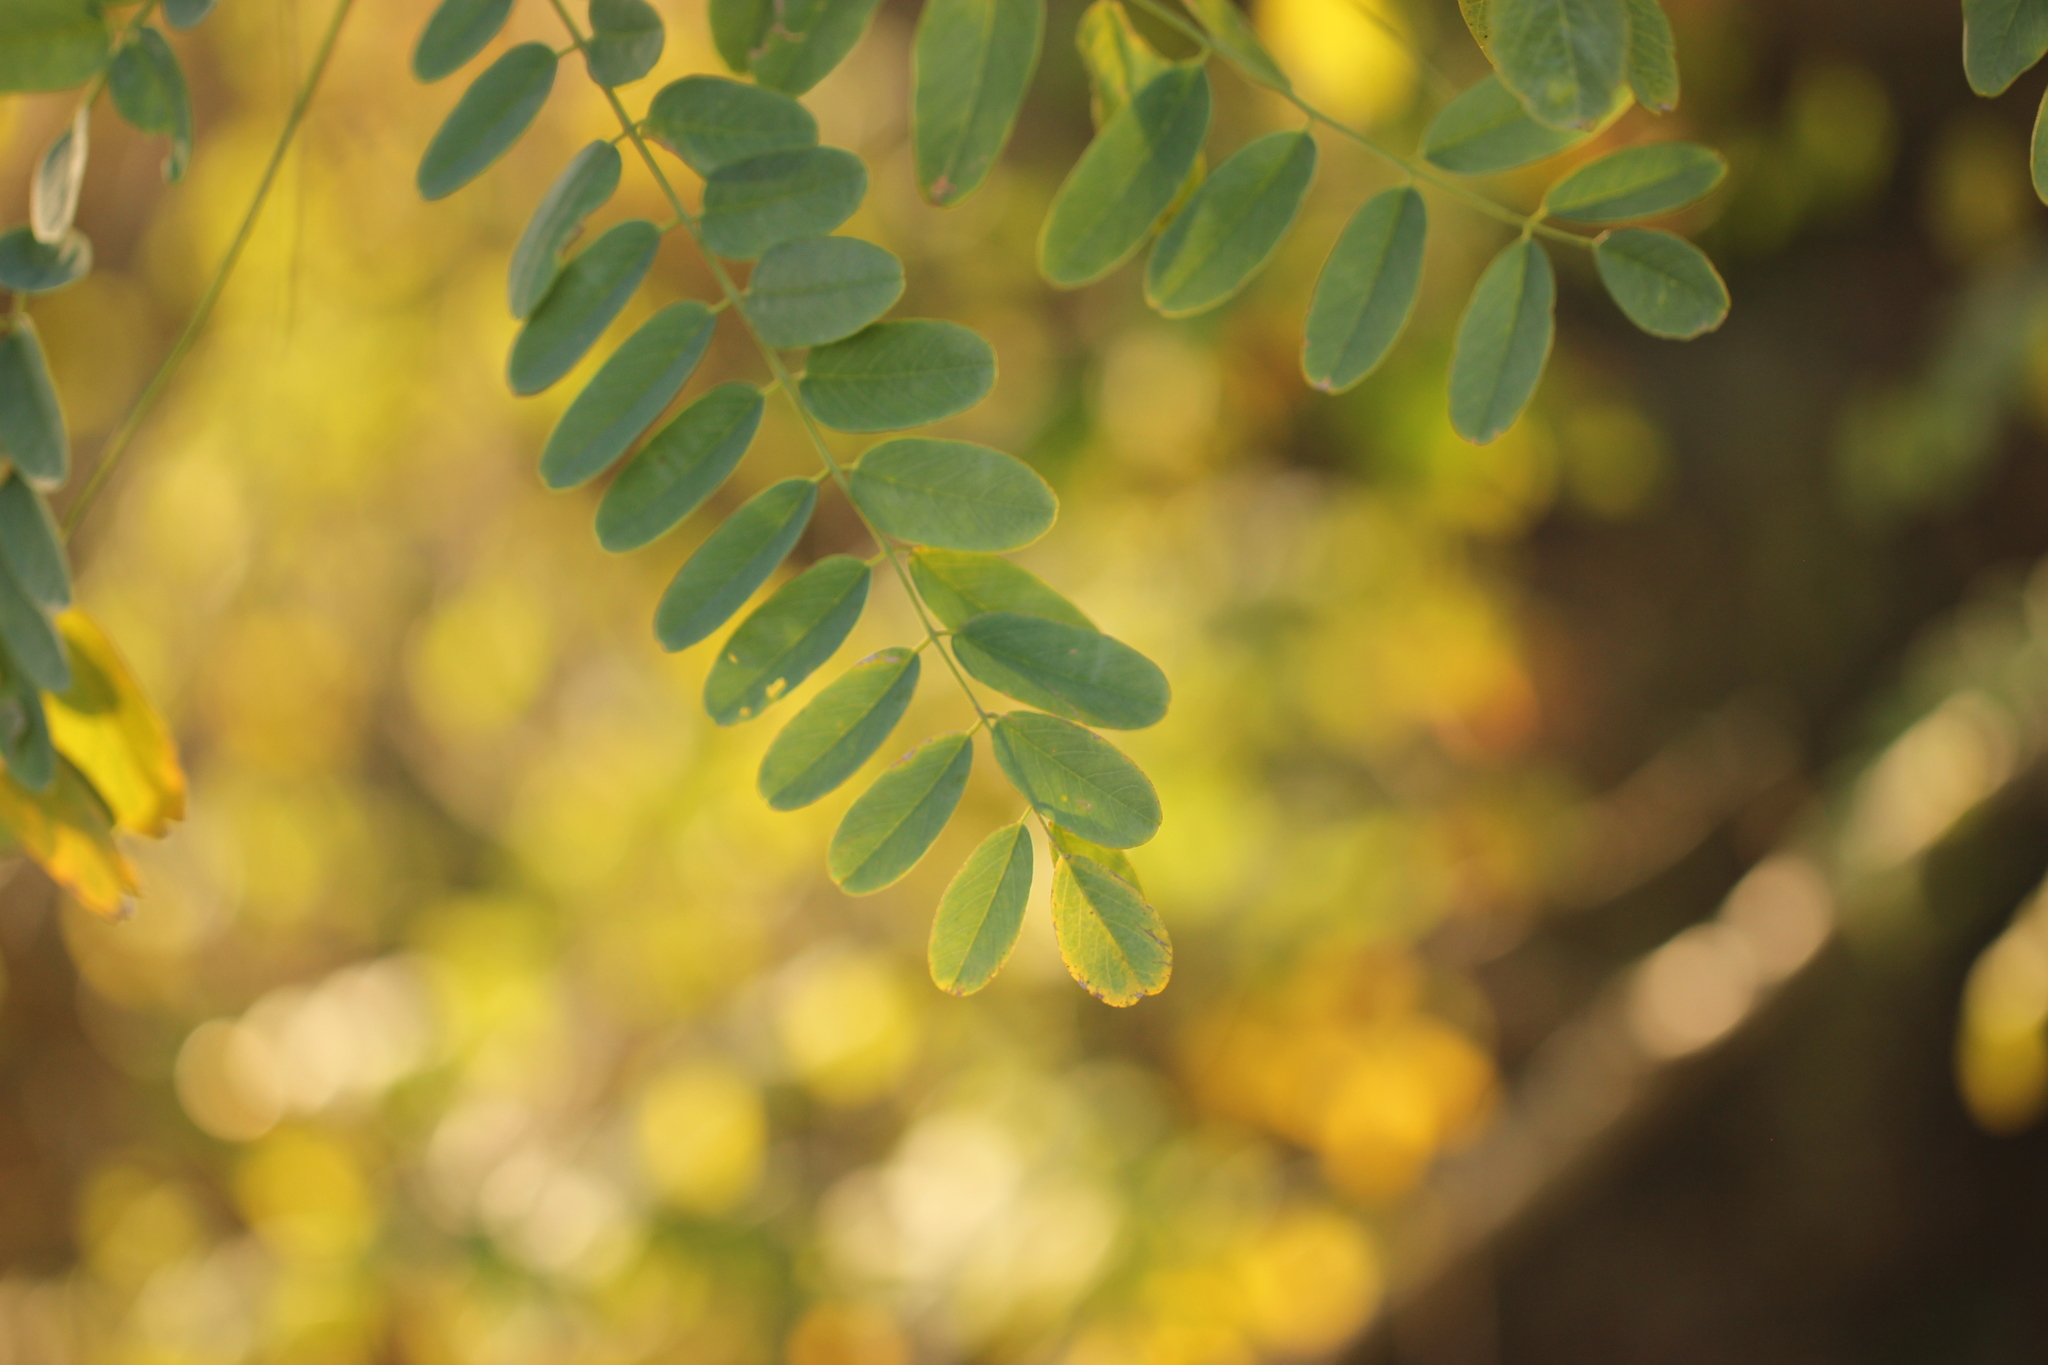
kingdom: Plantae
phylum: Tracheophyta
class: Magnoliopsida
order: Fabales
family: Fabaceae
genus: Robinia
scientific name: Robinia pseudoacacia
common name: Black locust
